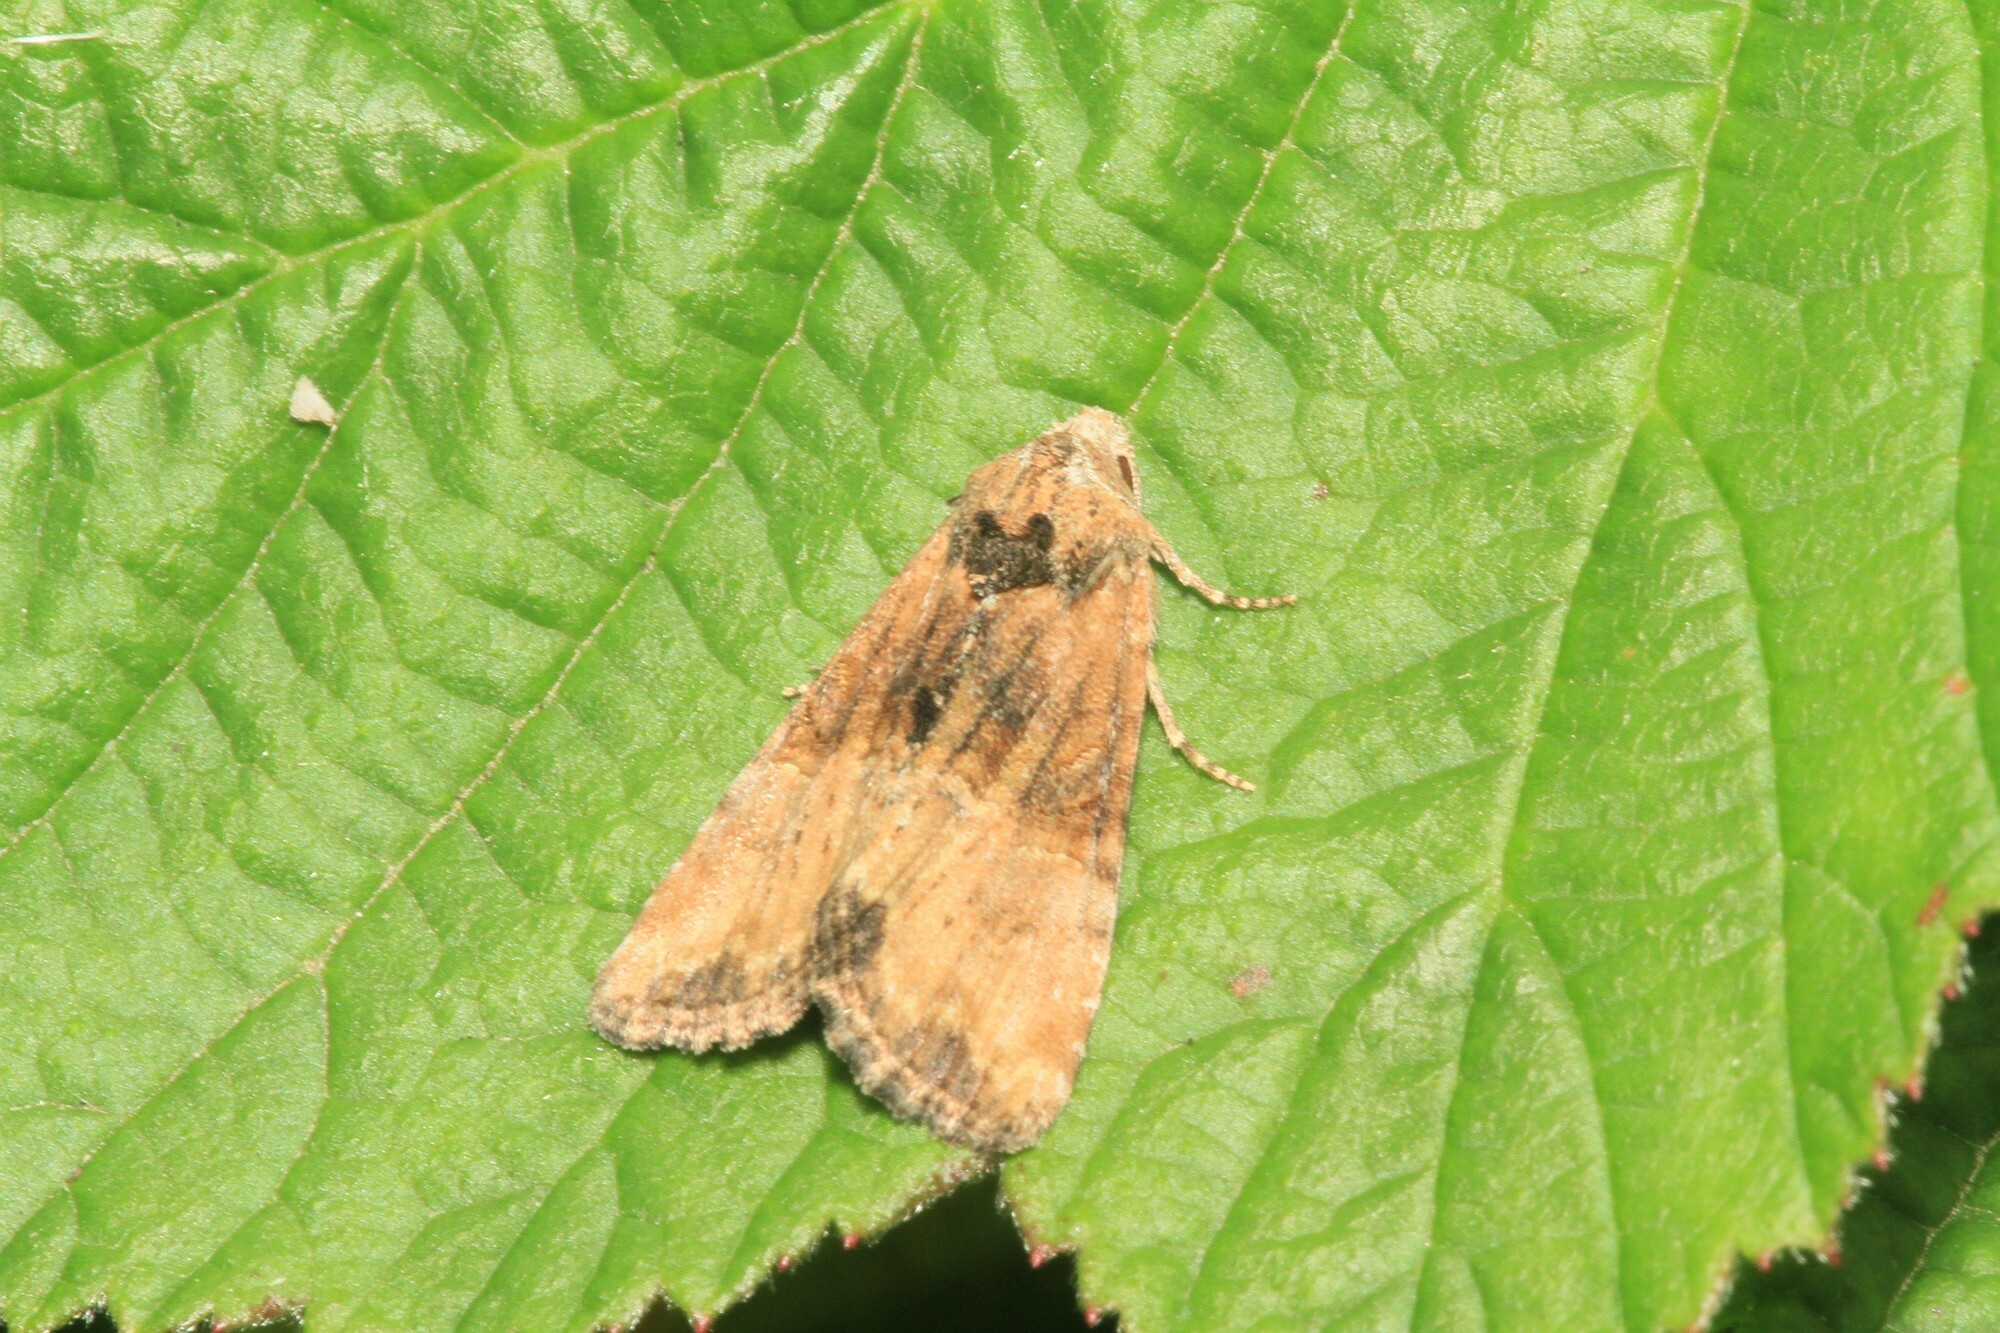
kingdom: Animalia
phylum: Arthropoda
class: Insecta
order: Lepidoptera
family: Noctuidae
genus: Mesoligia
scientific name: Mesoligia furuncula
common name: Cloaked minor
